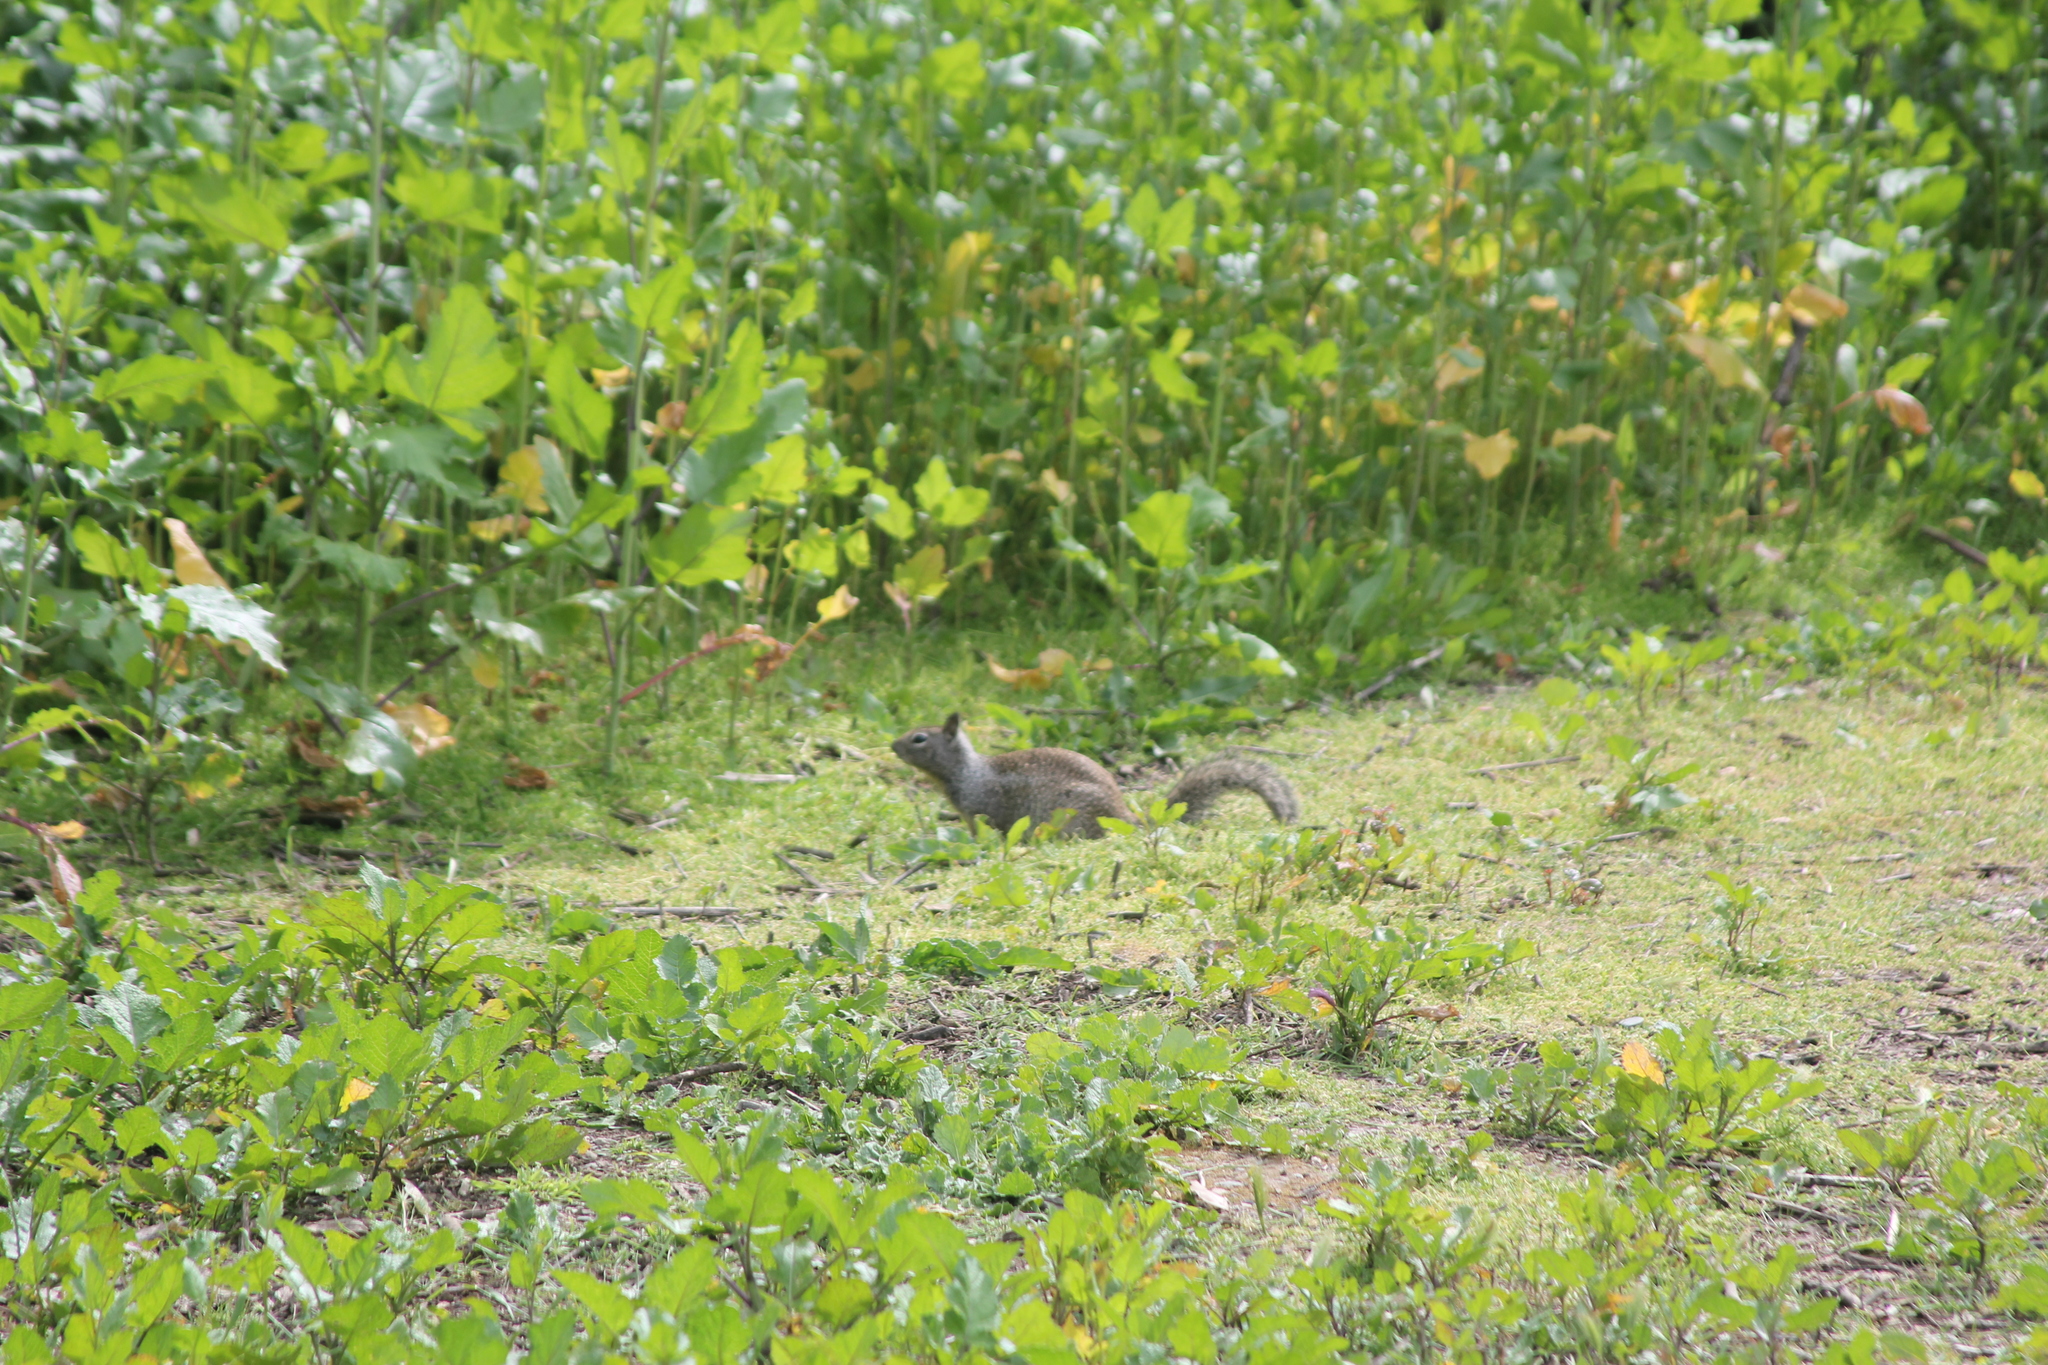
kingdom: Animalia
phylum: Chordata
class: Mammalia
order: Rodentia
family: Sciuridae
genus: Otospermophilus
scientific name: Otospermophilus beecheyi
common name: California ground squirrel
